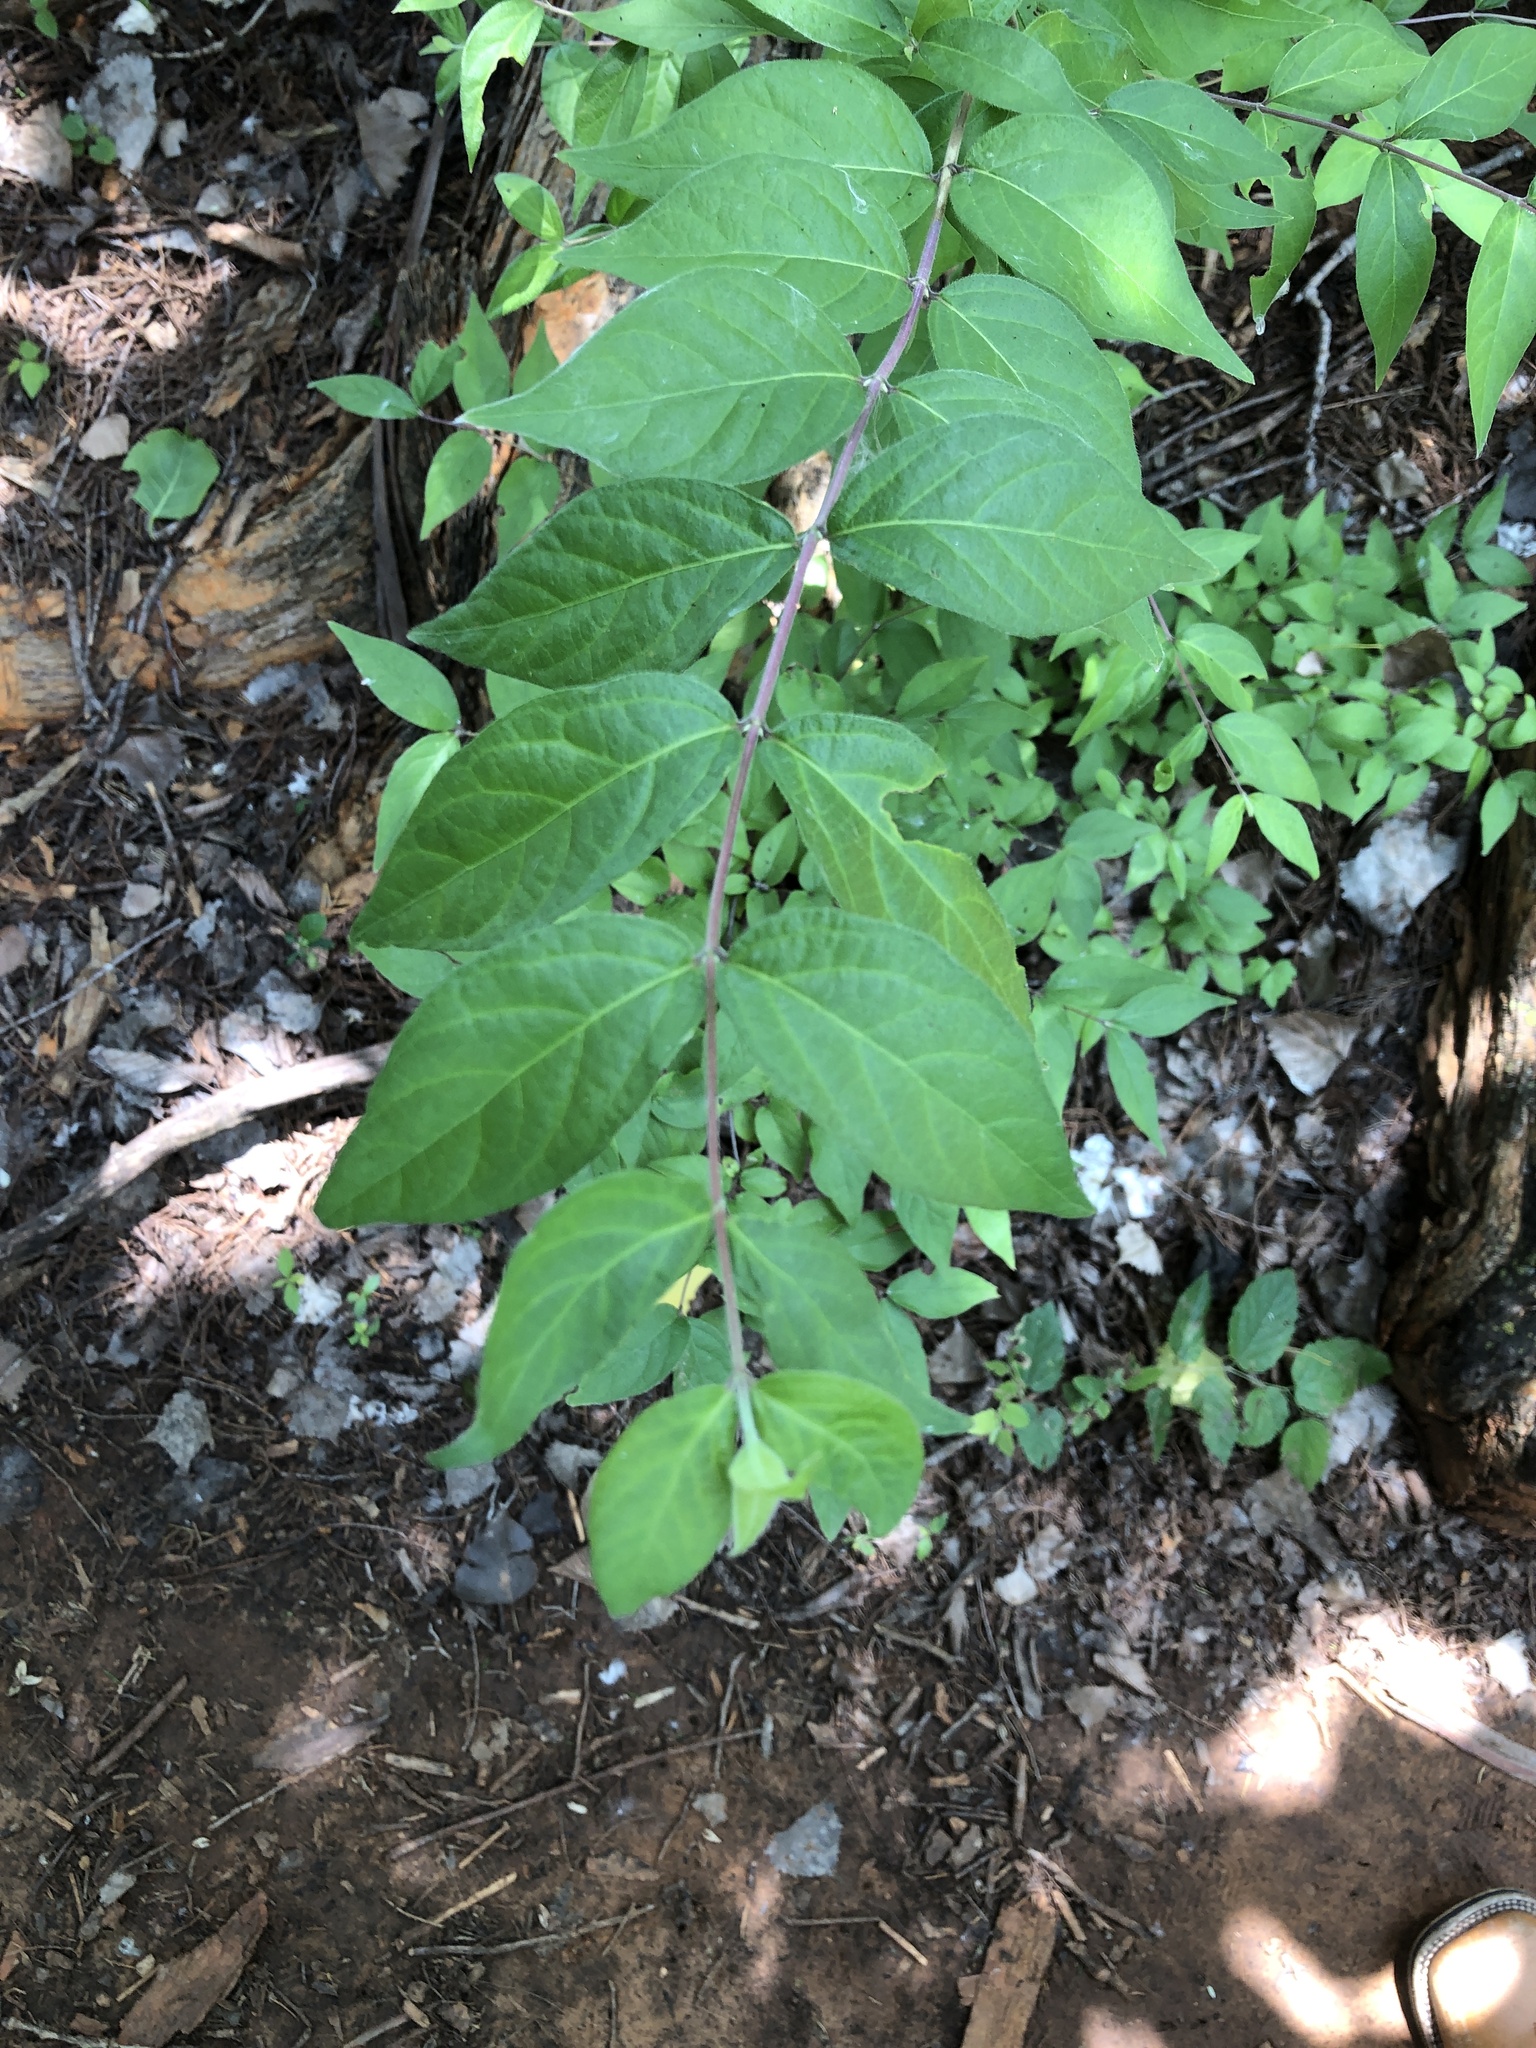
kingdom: Plantae
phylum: Tracheophyta
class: Magnoliopsida
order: Dipsacales
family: Caprifoliaceae
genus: Lonicera
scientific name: Lonicera maackii
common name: Amur honeysuckle
